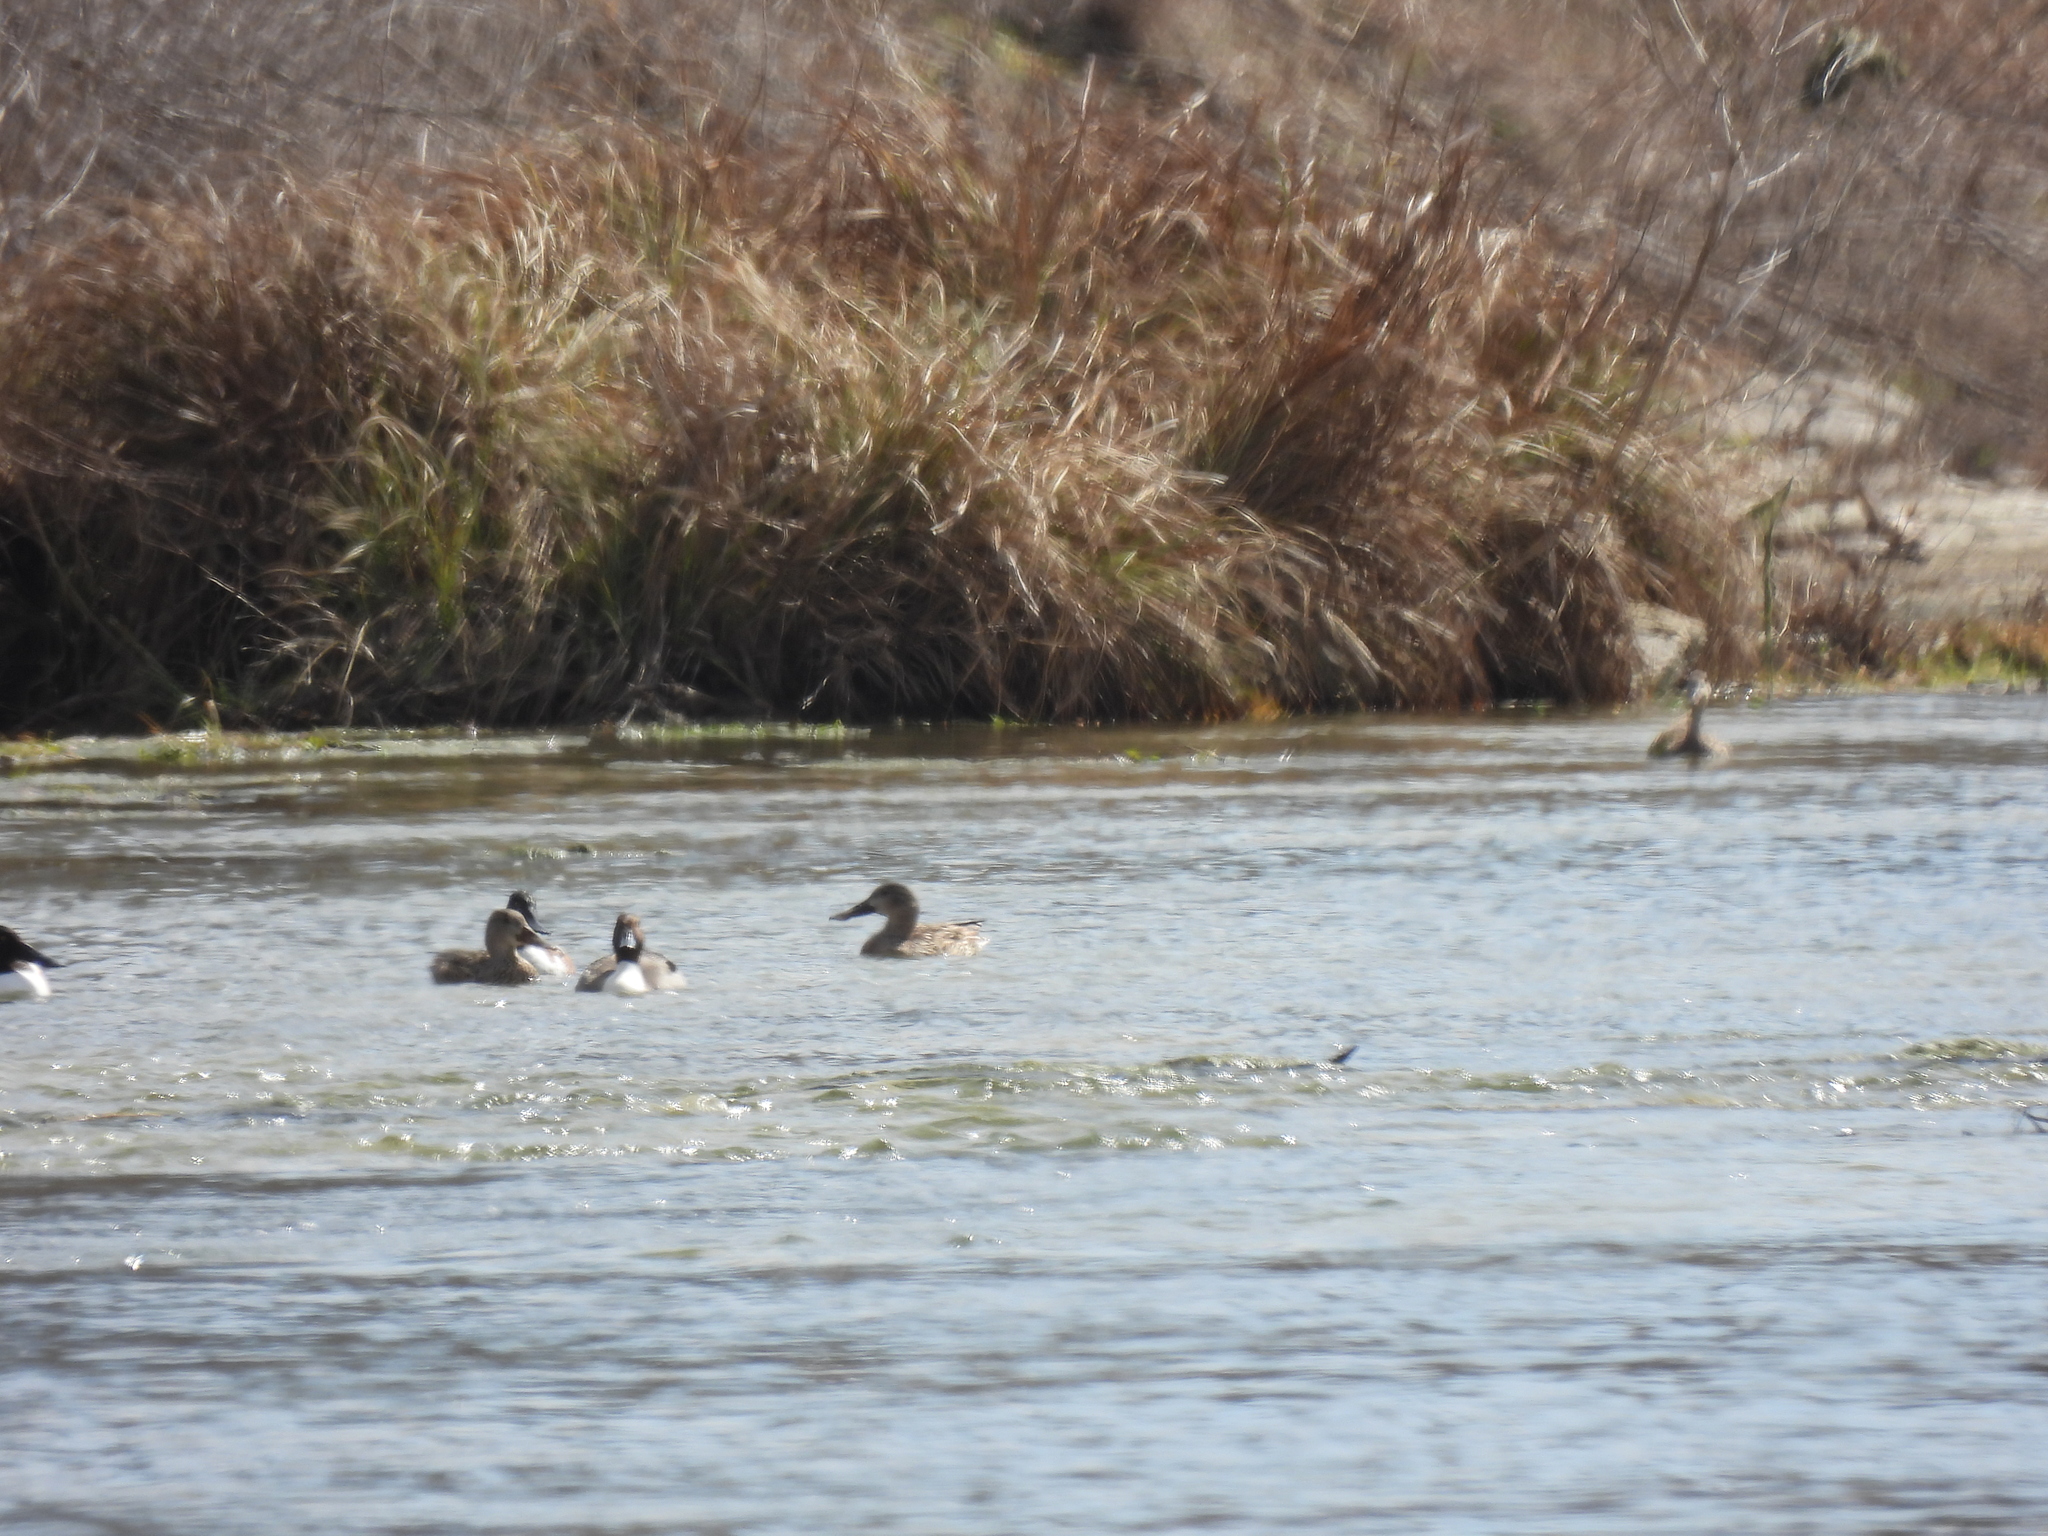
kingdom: Animalia
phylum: Chordata
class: Aves
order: Anseriformes
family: Anatidae
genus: Spatula
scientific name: Spatula clypeata
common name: Northern shoveler
